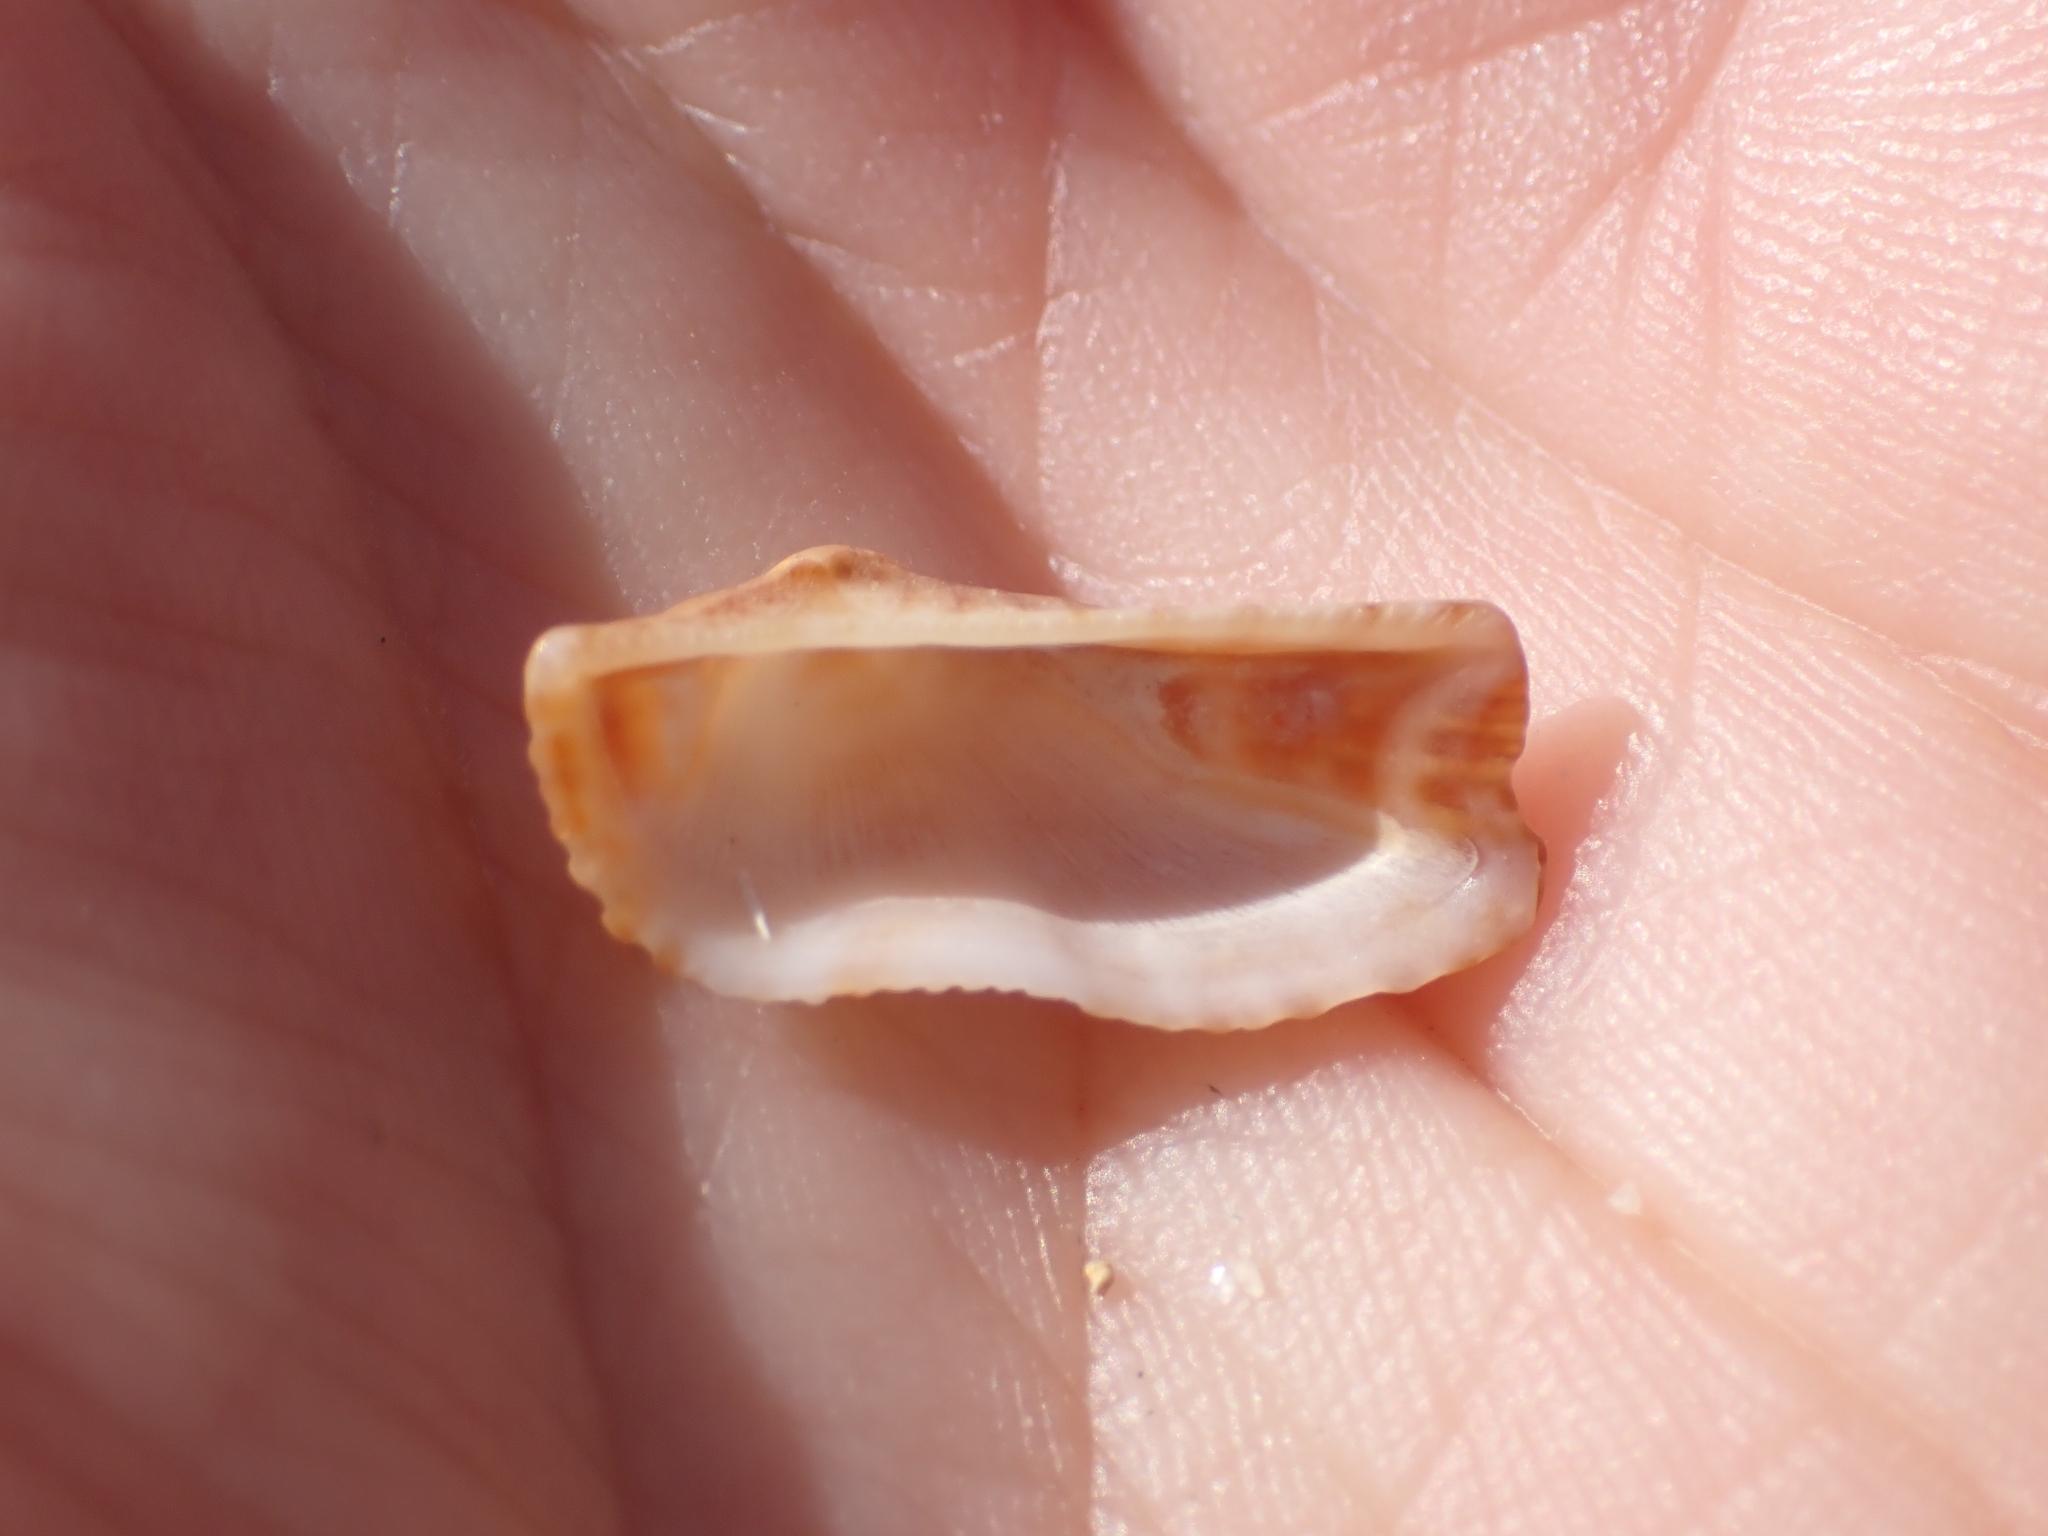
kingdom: Animalia
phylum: Mollusca
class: Bivalvia
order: Arcida
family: Arcidae
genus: Arca
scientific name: Arca noae
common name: Noah's arch
